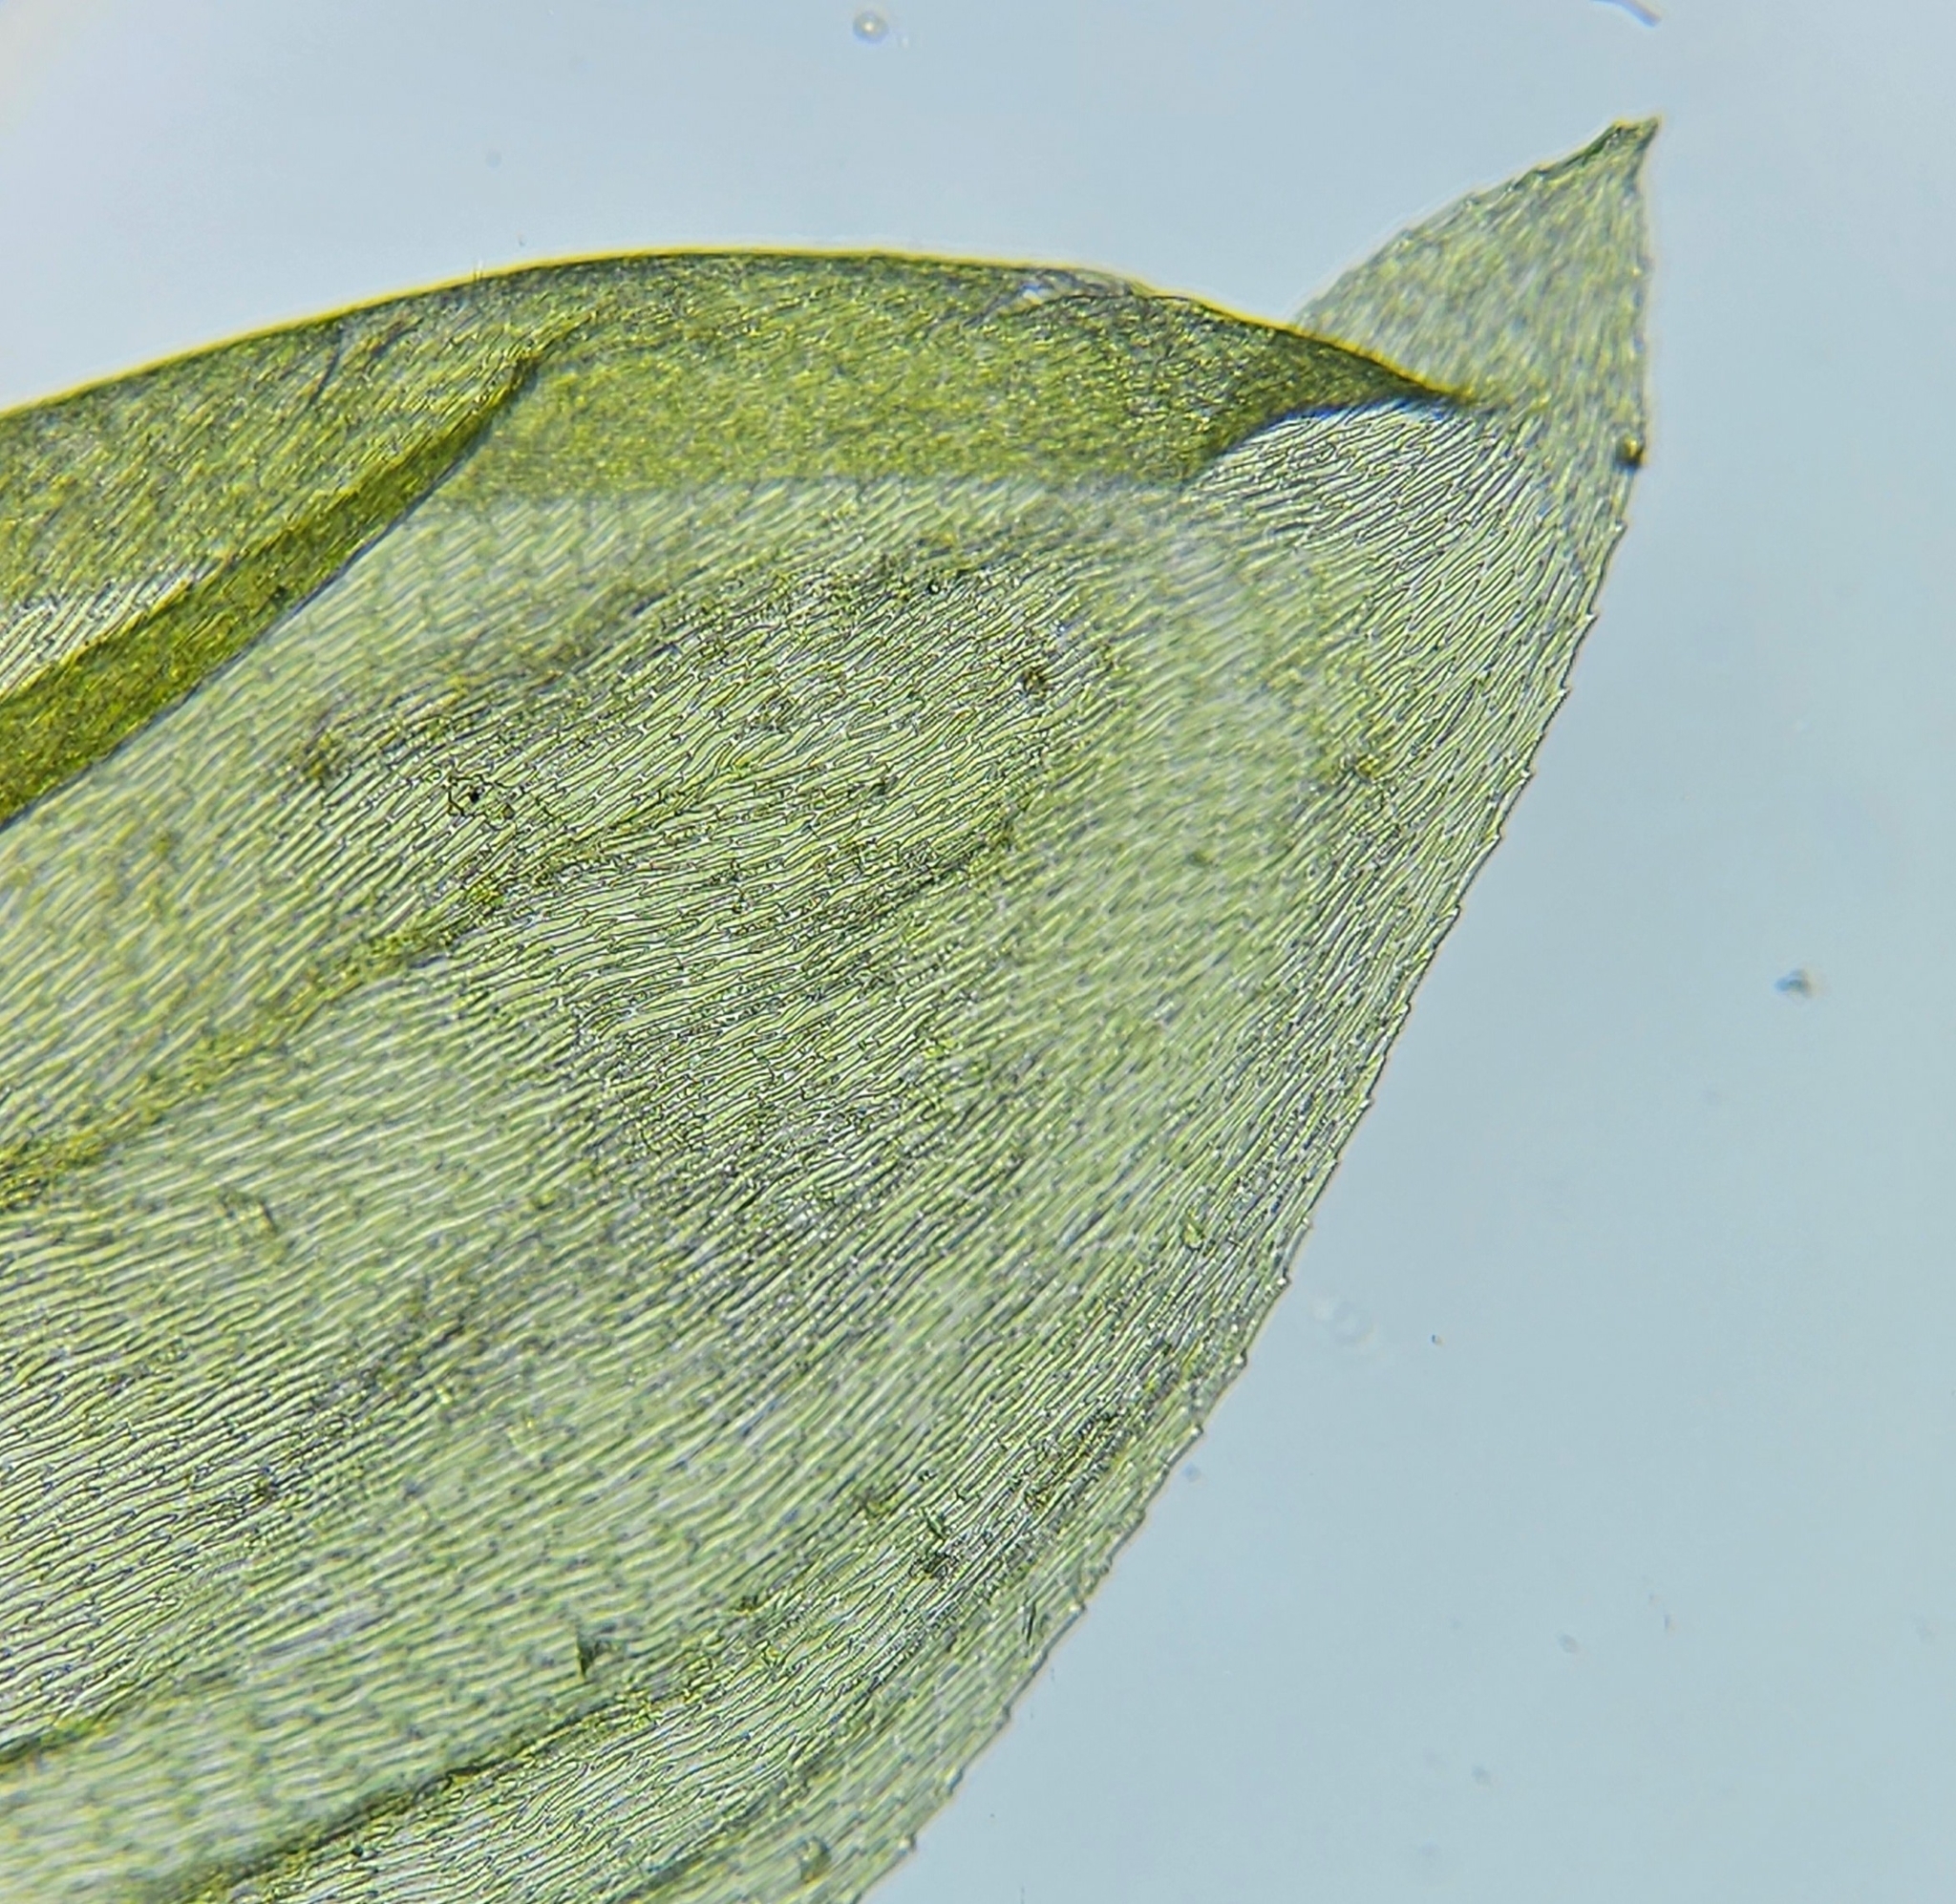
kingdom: Plantae
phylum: Bryophyta
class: Bryopsida
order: Hypnales
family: Brachytheciaceae
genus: Brachythecium
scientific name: Brachythecium rutabulum
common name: Rough-stalked feather-moss
